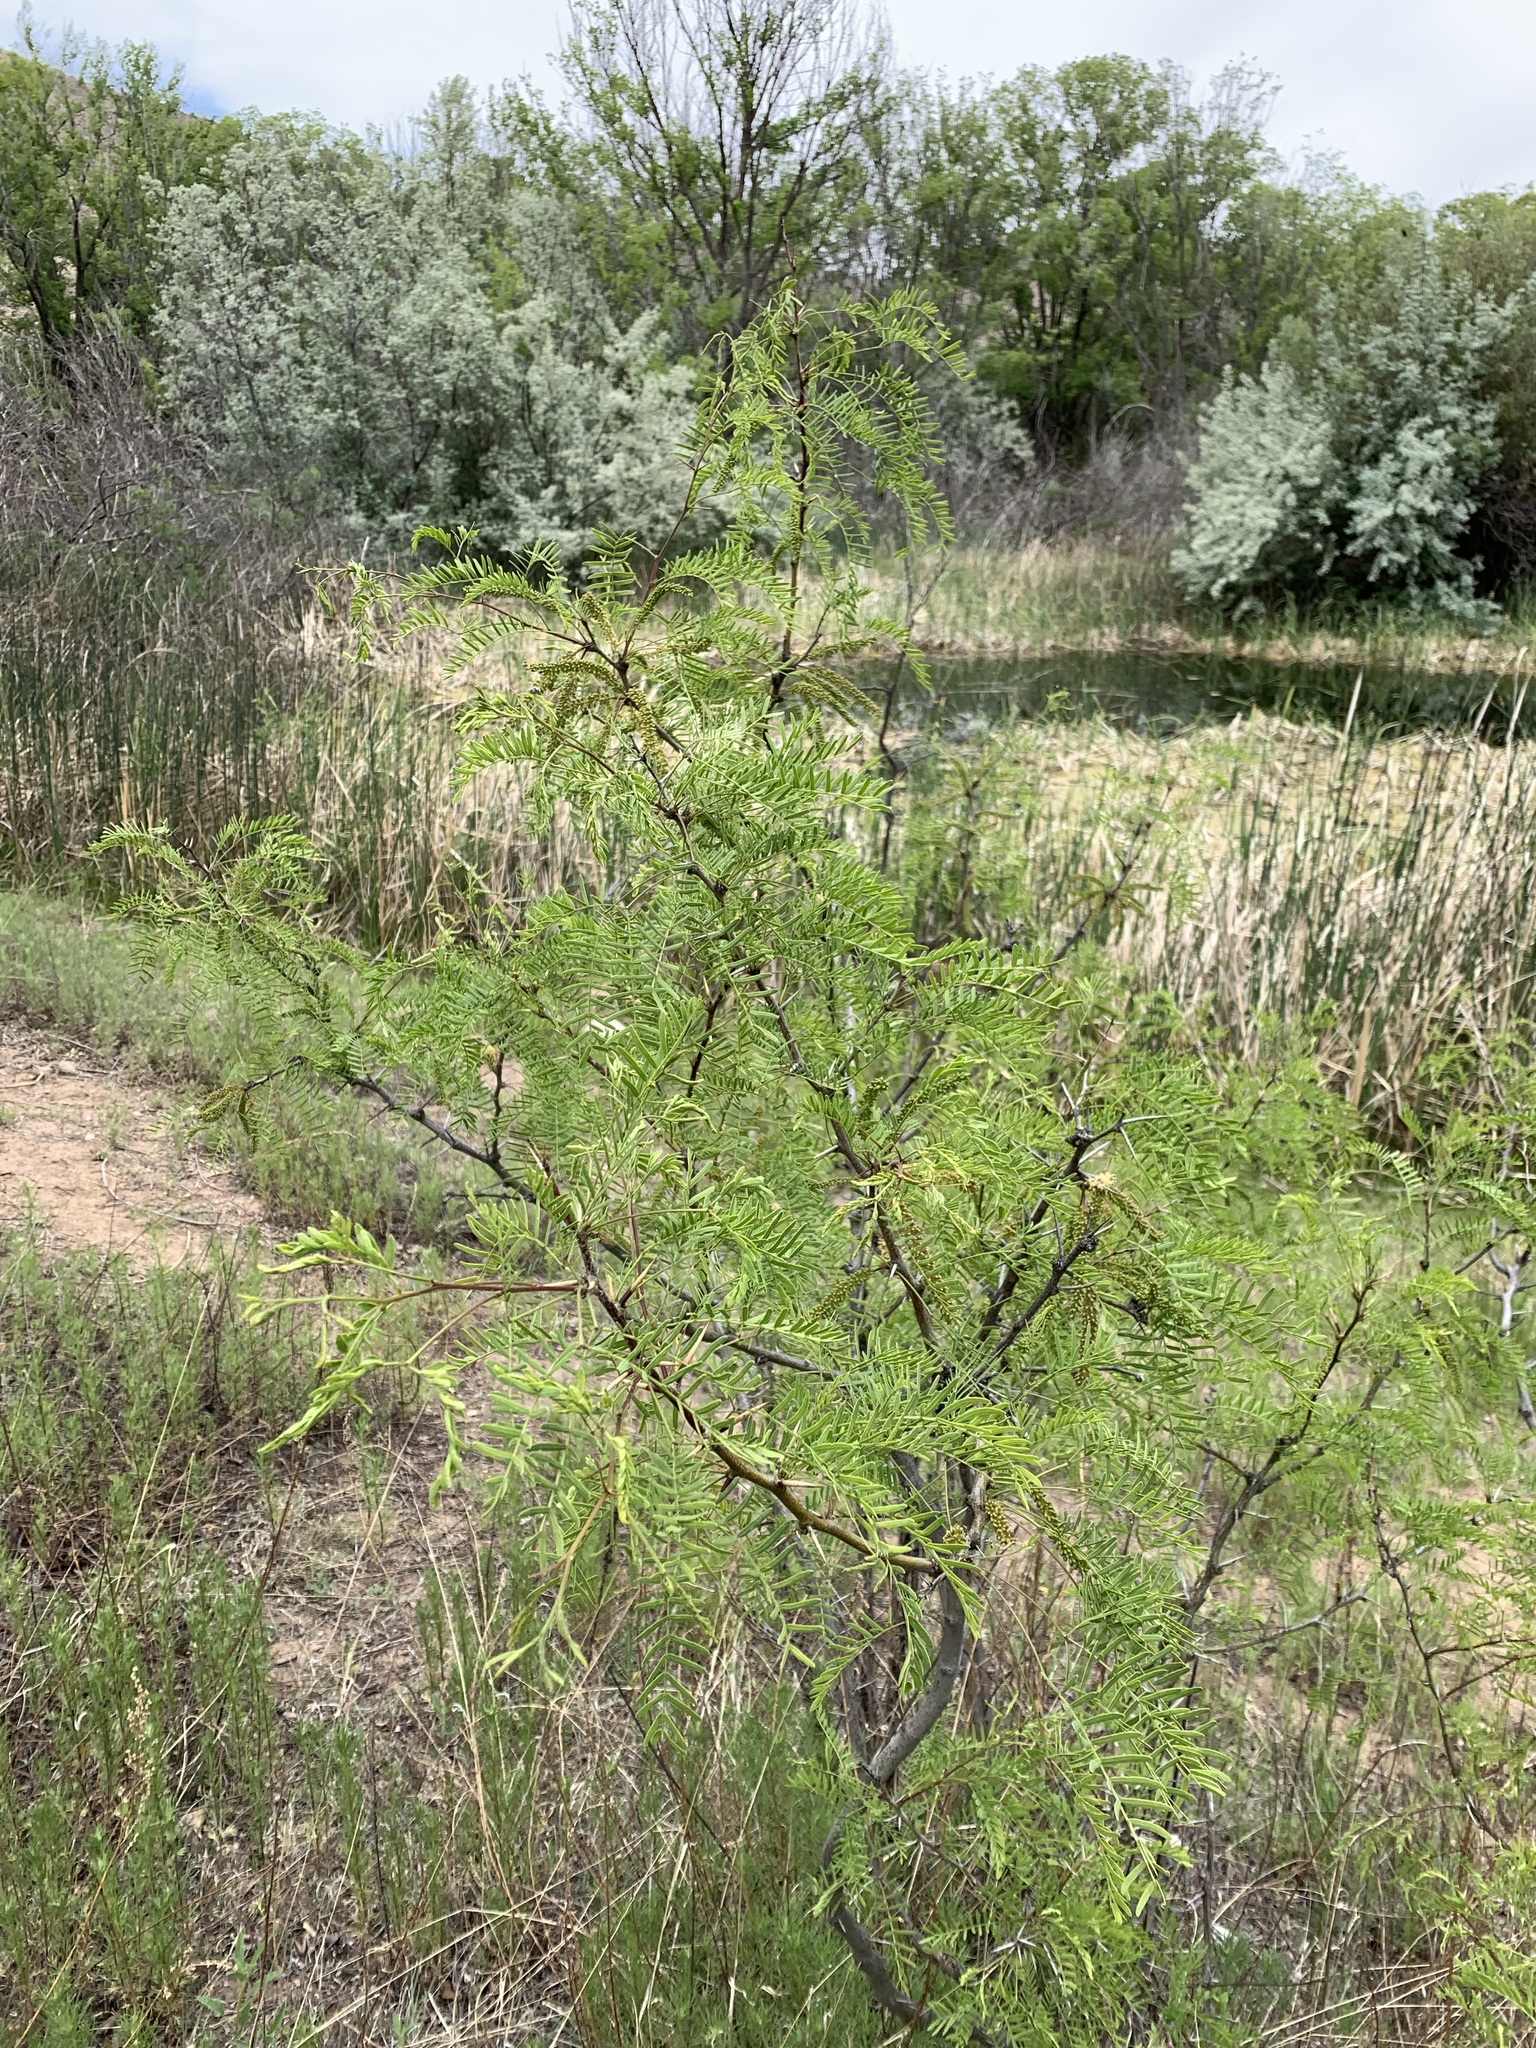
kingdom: Plantae
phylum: Tracheophyta
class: Magnoliopsida
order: Fabales
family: Fabaceae
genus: Prosopis
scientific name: Prosopis glandulosa
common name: Honey mesquite
